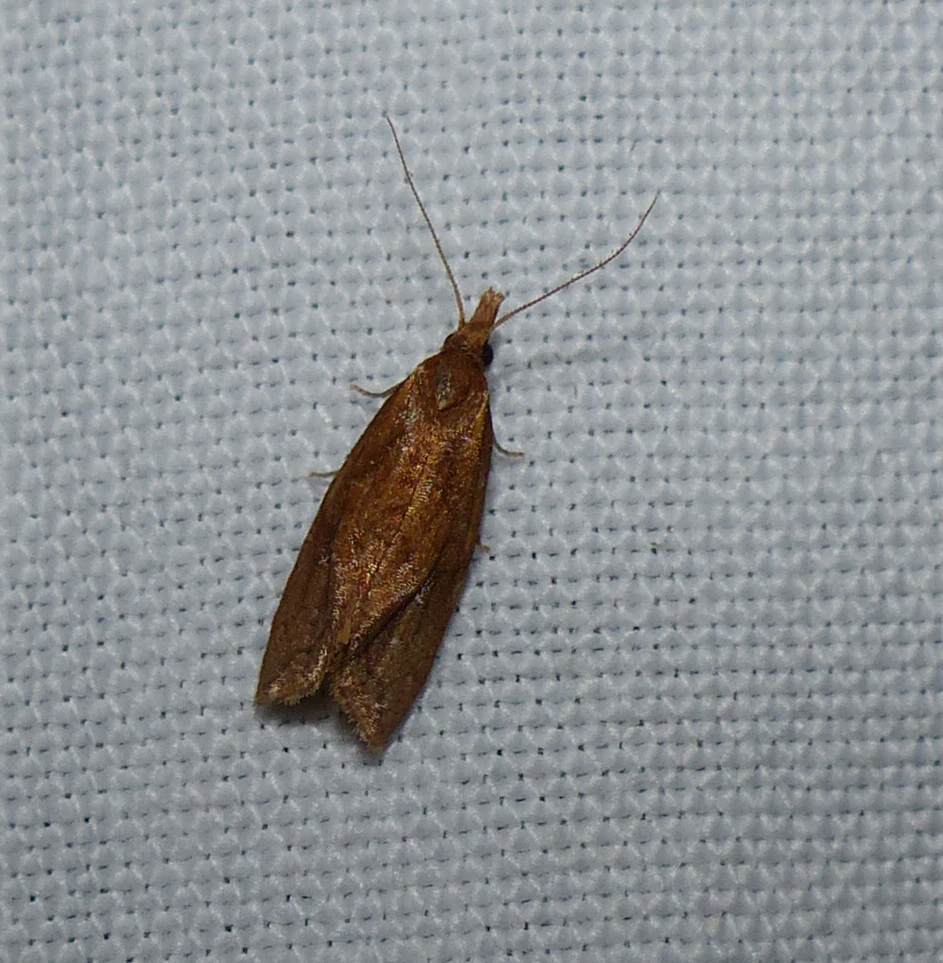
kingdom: Animalia
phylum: Arthropoda
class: Insecta
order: Lepidoptera
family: Tortricidae
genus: Aethes
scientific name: Aethes biscana
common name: Reddish aethes
